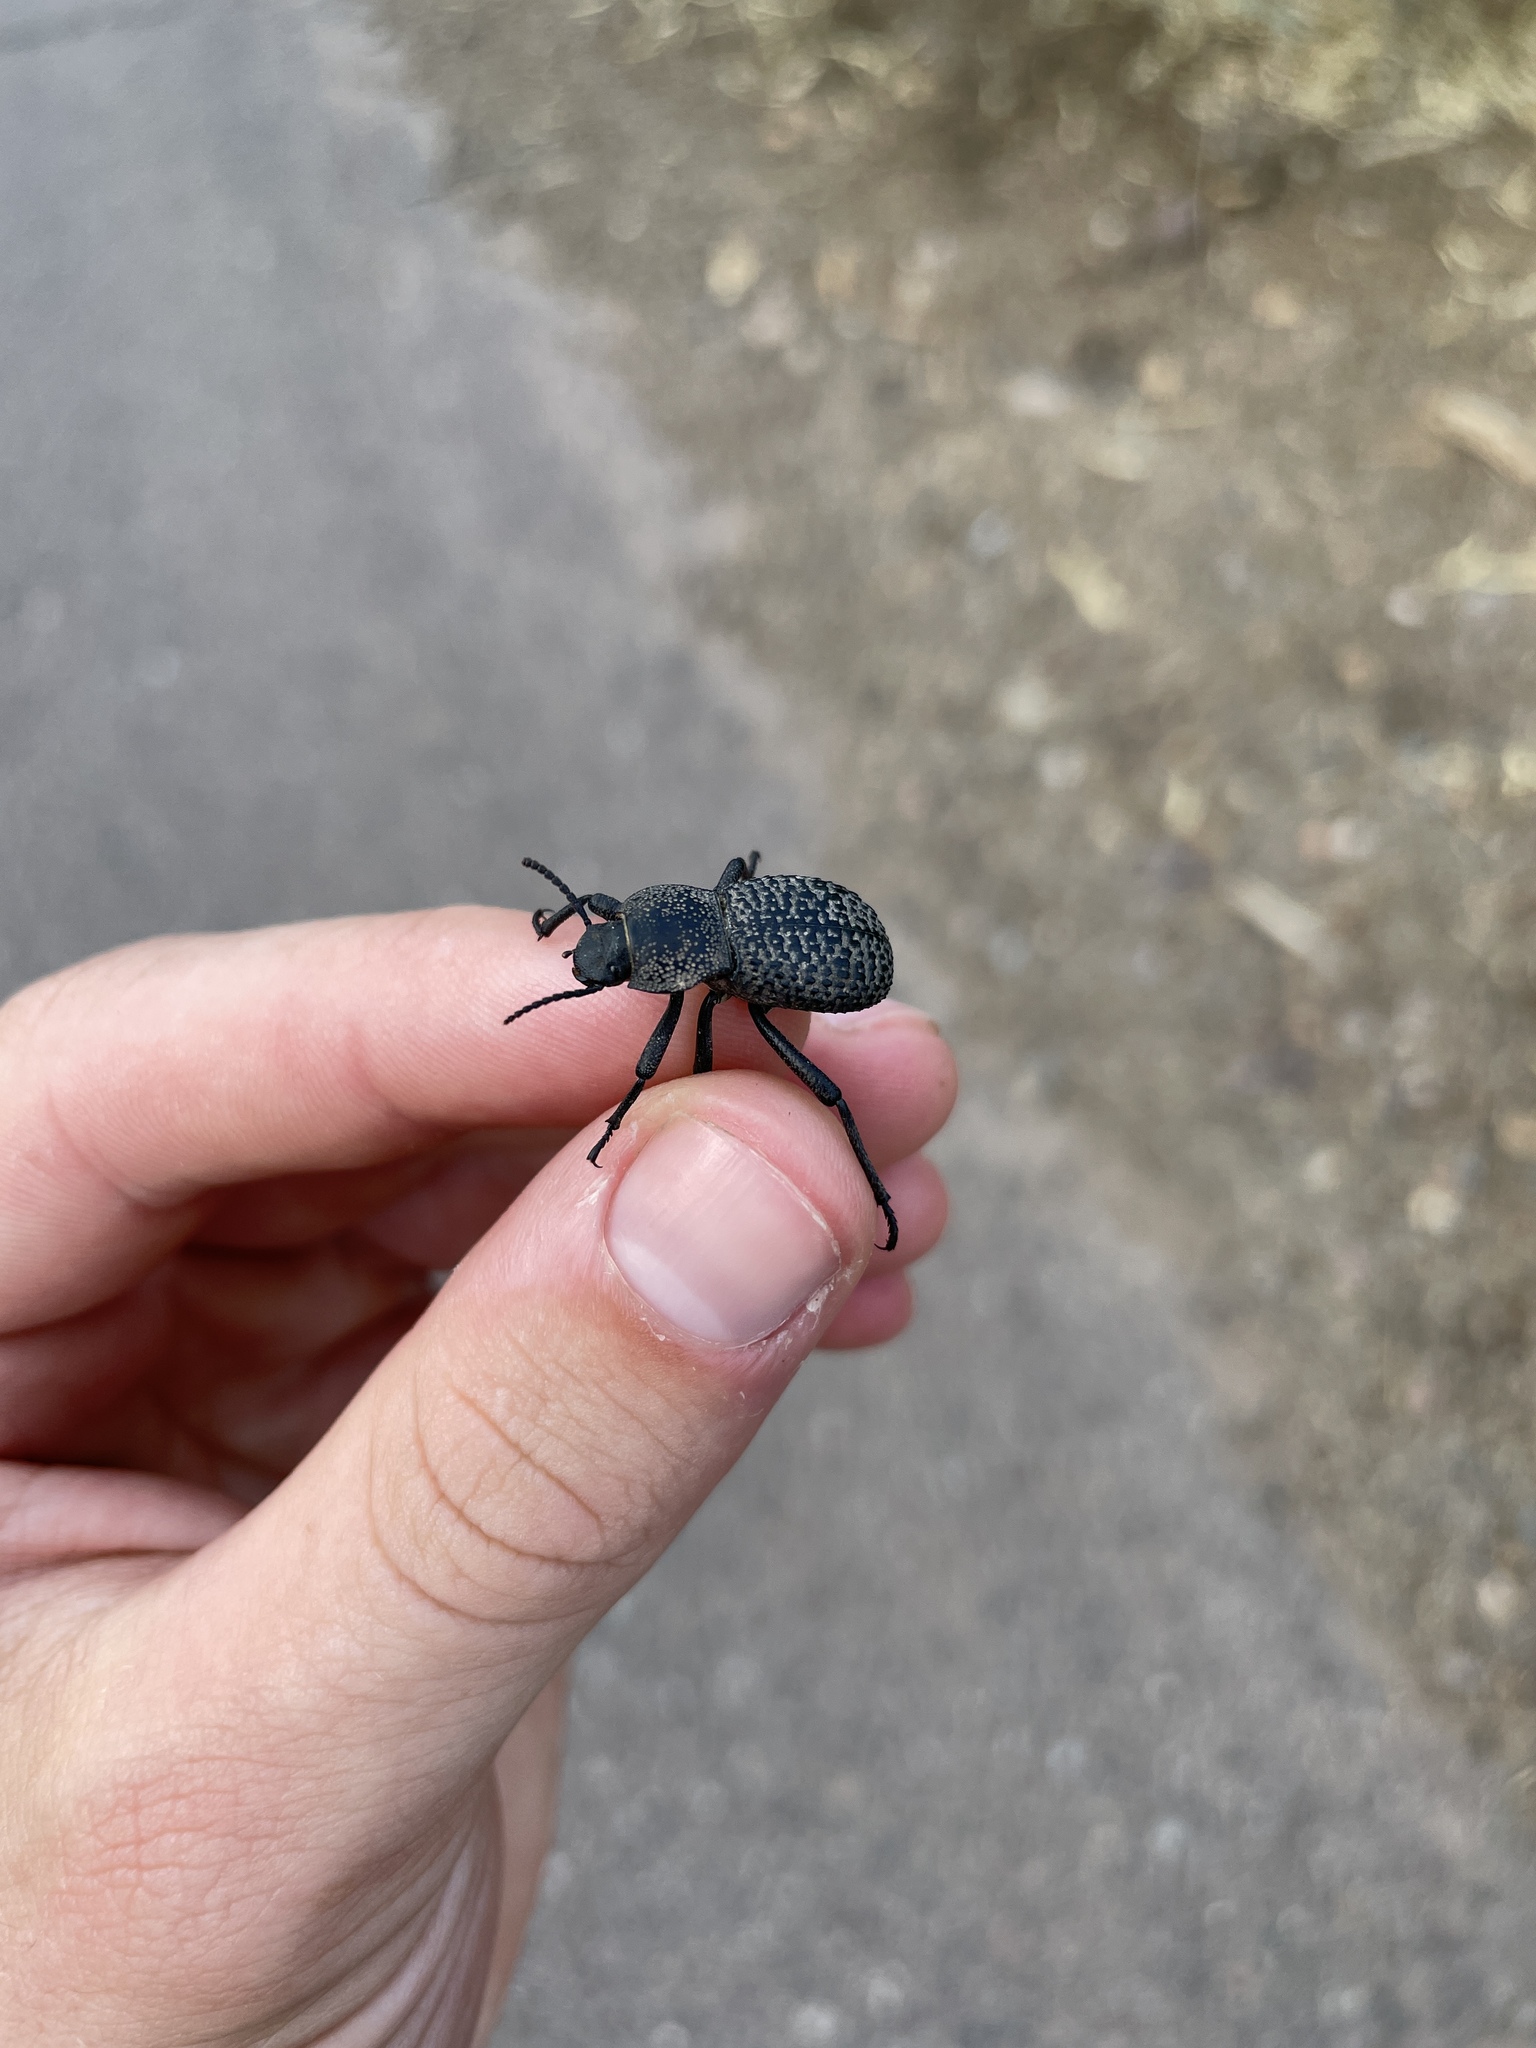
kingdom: Animalia
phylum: Arthropoda
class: Insecta
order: Coleoptera
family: Tenebrionidae
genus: Cryptoglossa
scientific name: Cryptoglossa variolosa
